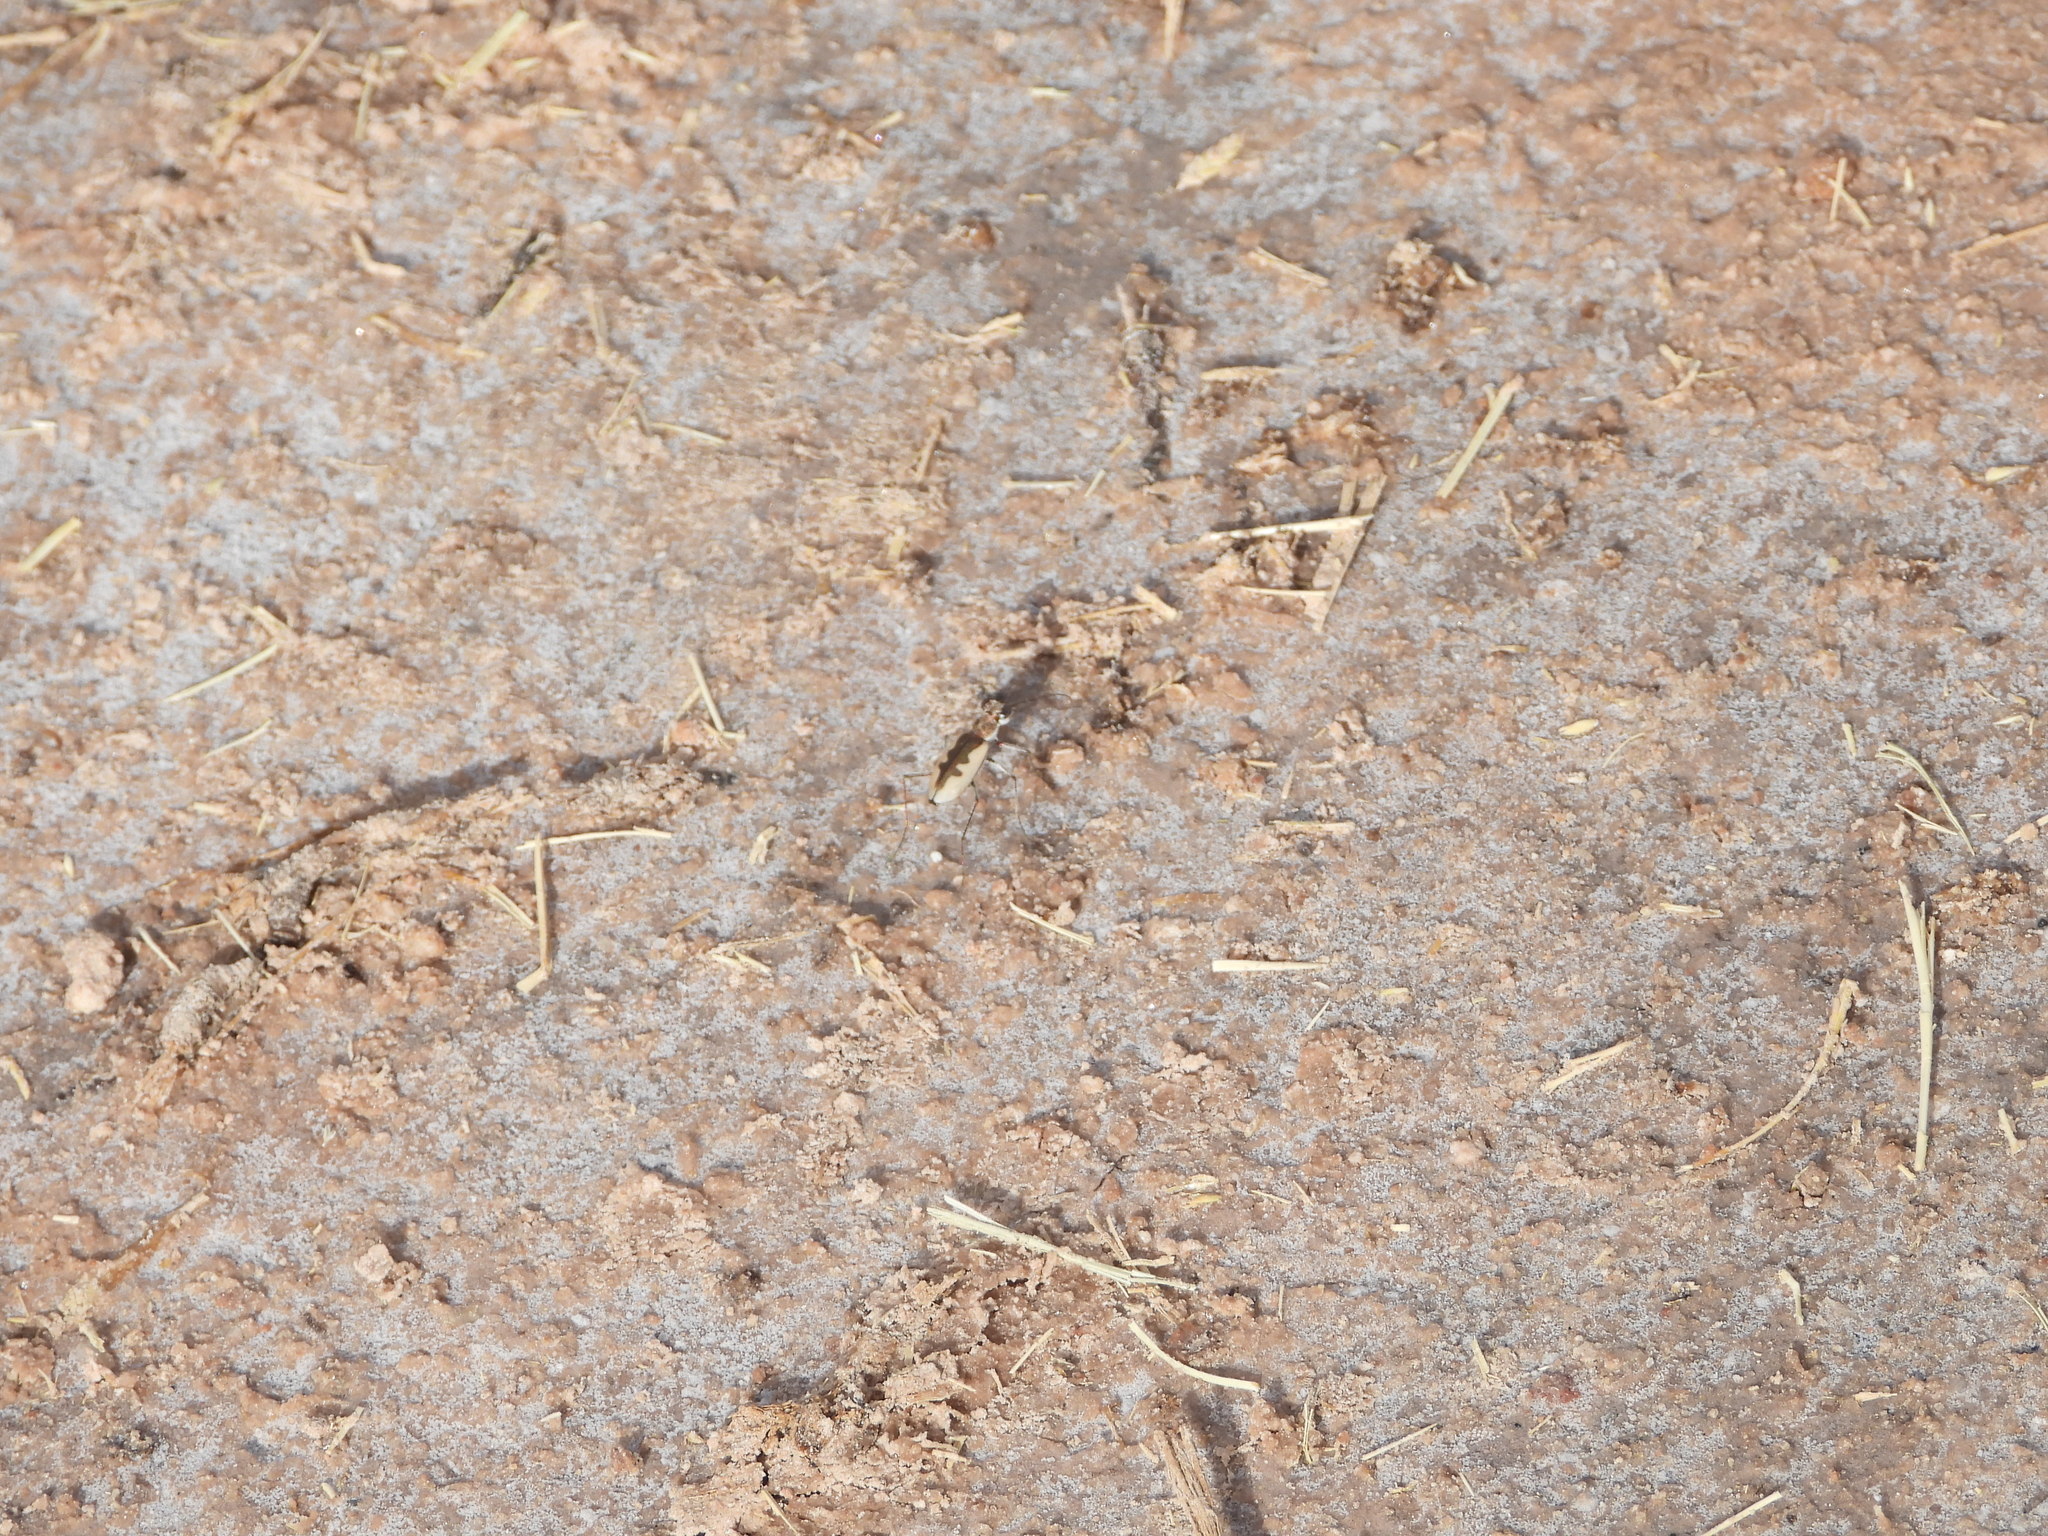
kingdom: Animalia
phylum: Arthropoda
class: Insecta
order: Coleoptera
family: Carabidae
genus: Eunota
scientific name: Eunota togata
